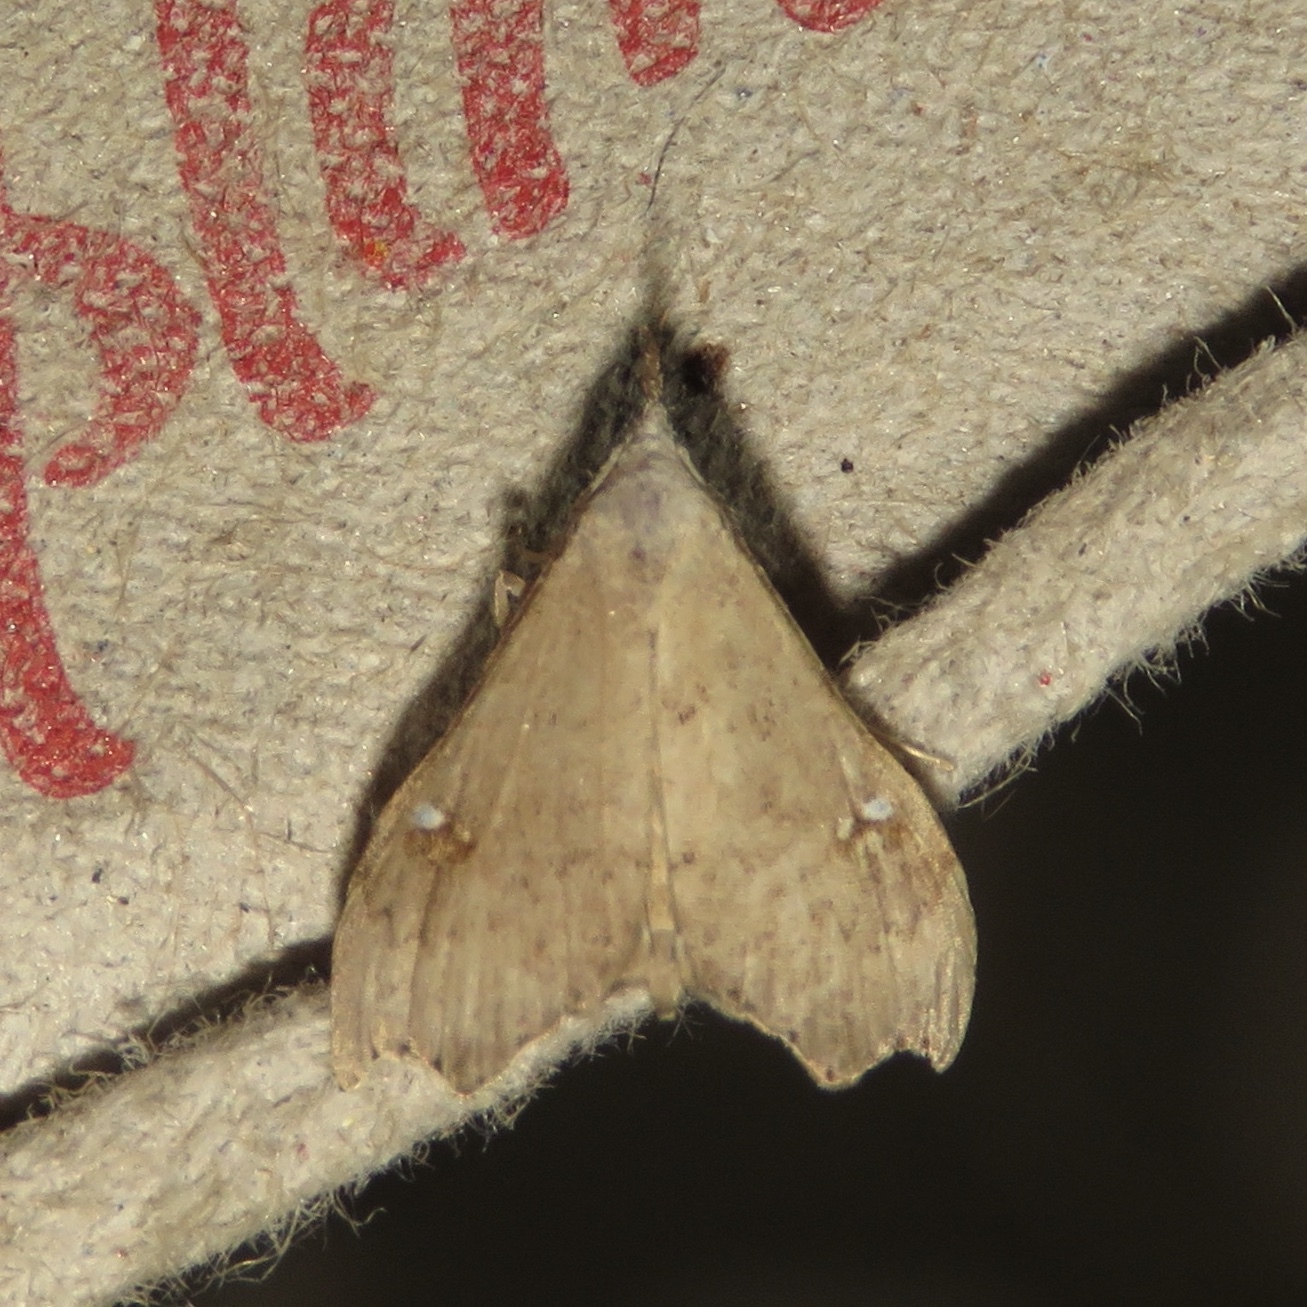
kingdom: Animalia
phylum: Arthropoda
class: Insecta
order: Lepidoptera
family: Erebidae
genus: Redectis
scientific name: Redectis vitrea
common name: White-spotted redectis
